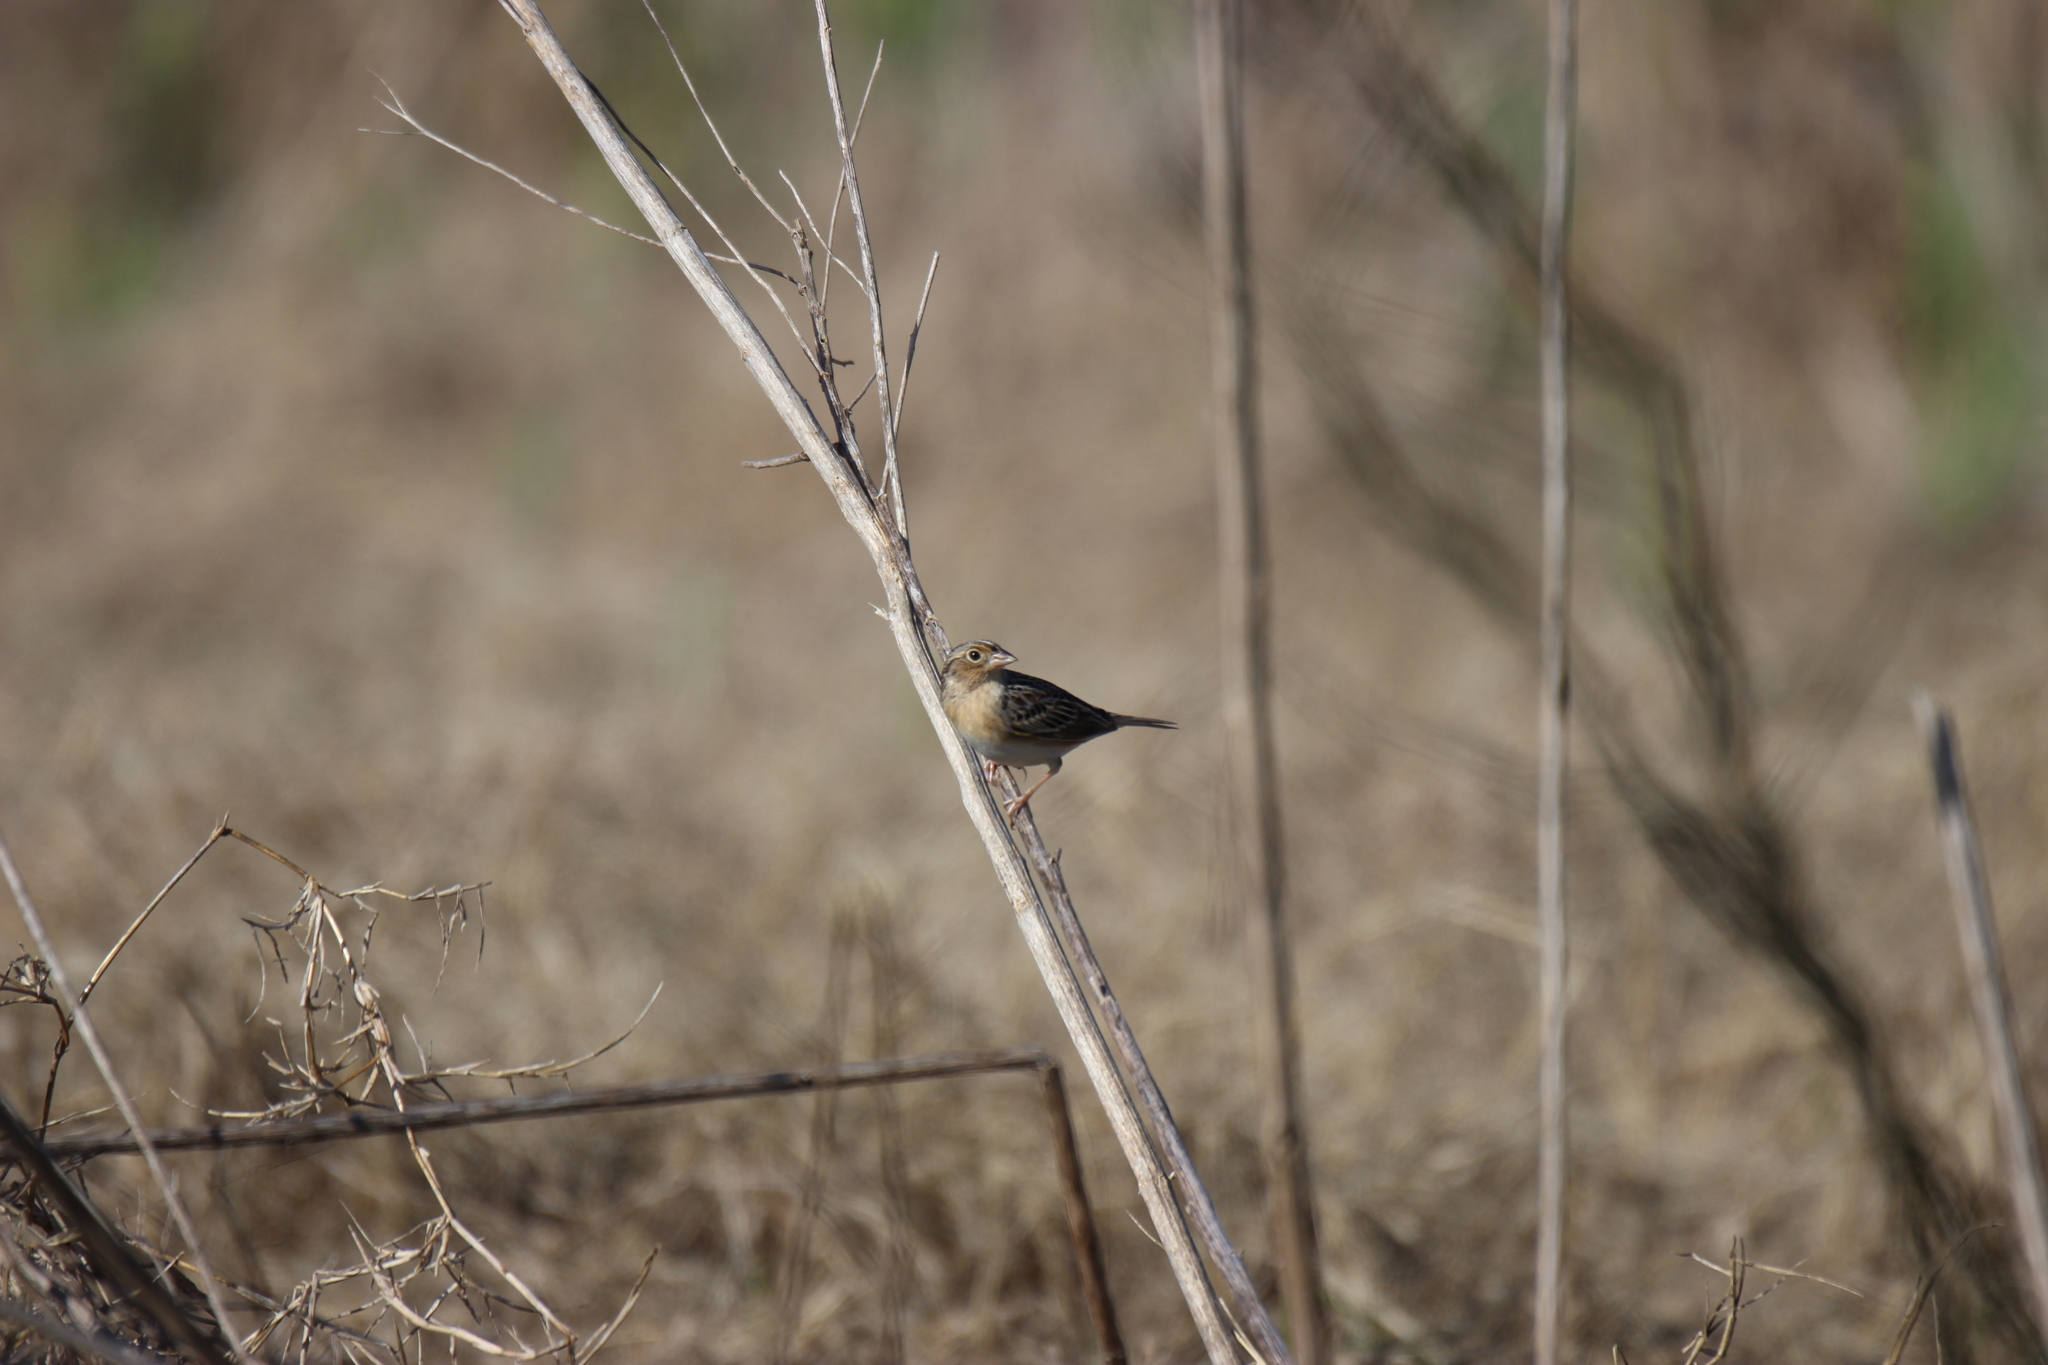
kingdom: Animalia
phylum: Chordata
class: Aves
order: Passeriformes
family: Passerellidae
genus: Ammodramus
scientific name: Ammodramus savannarum
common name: Grasshopper sparrow
